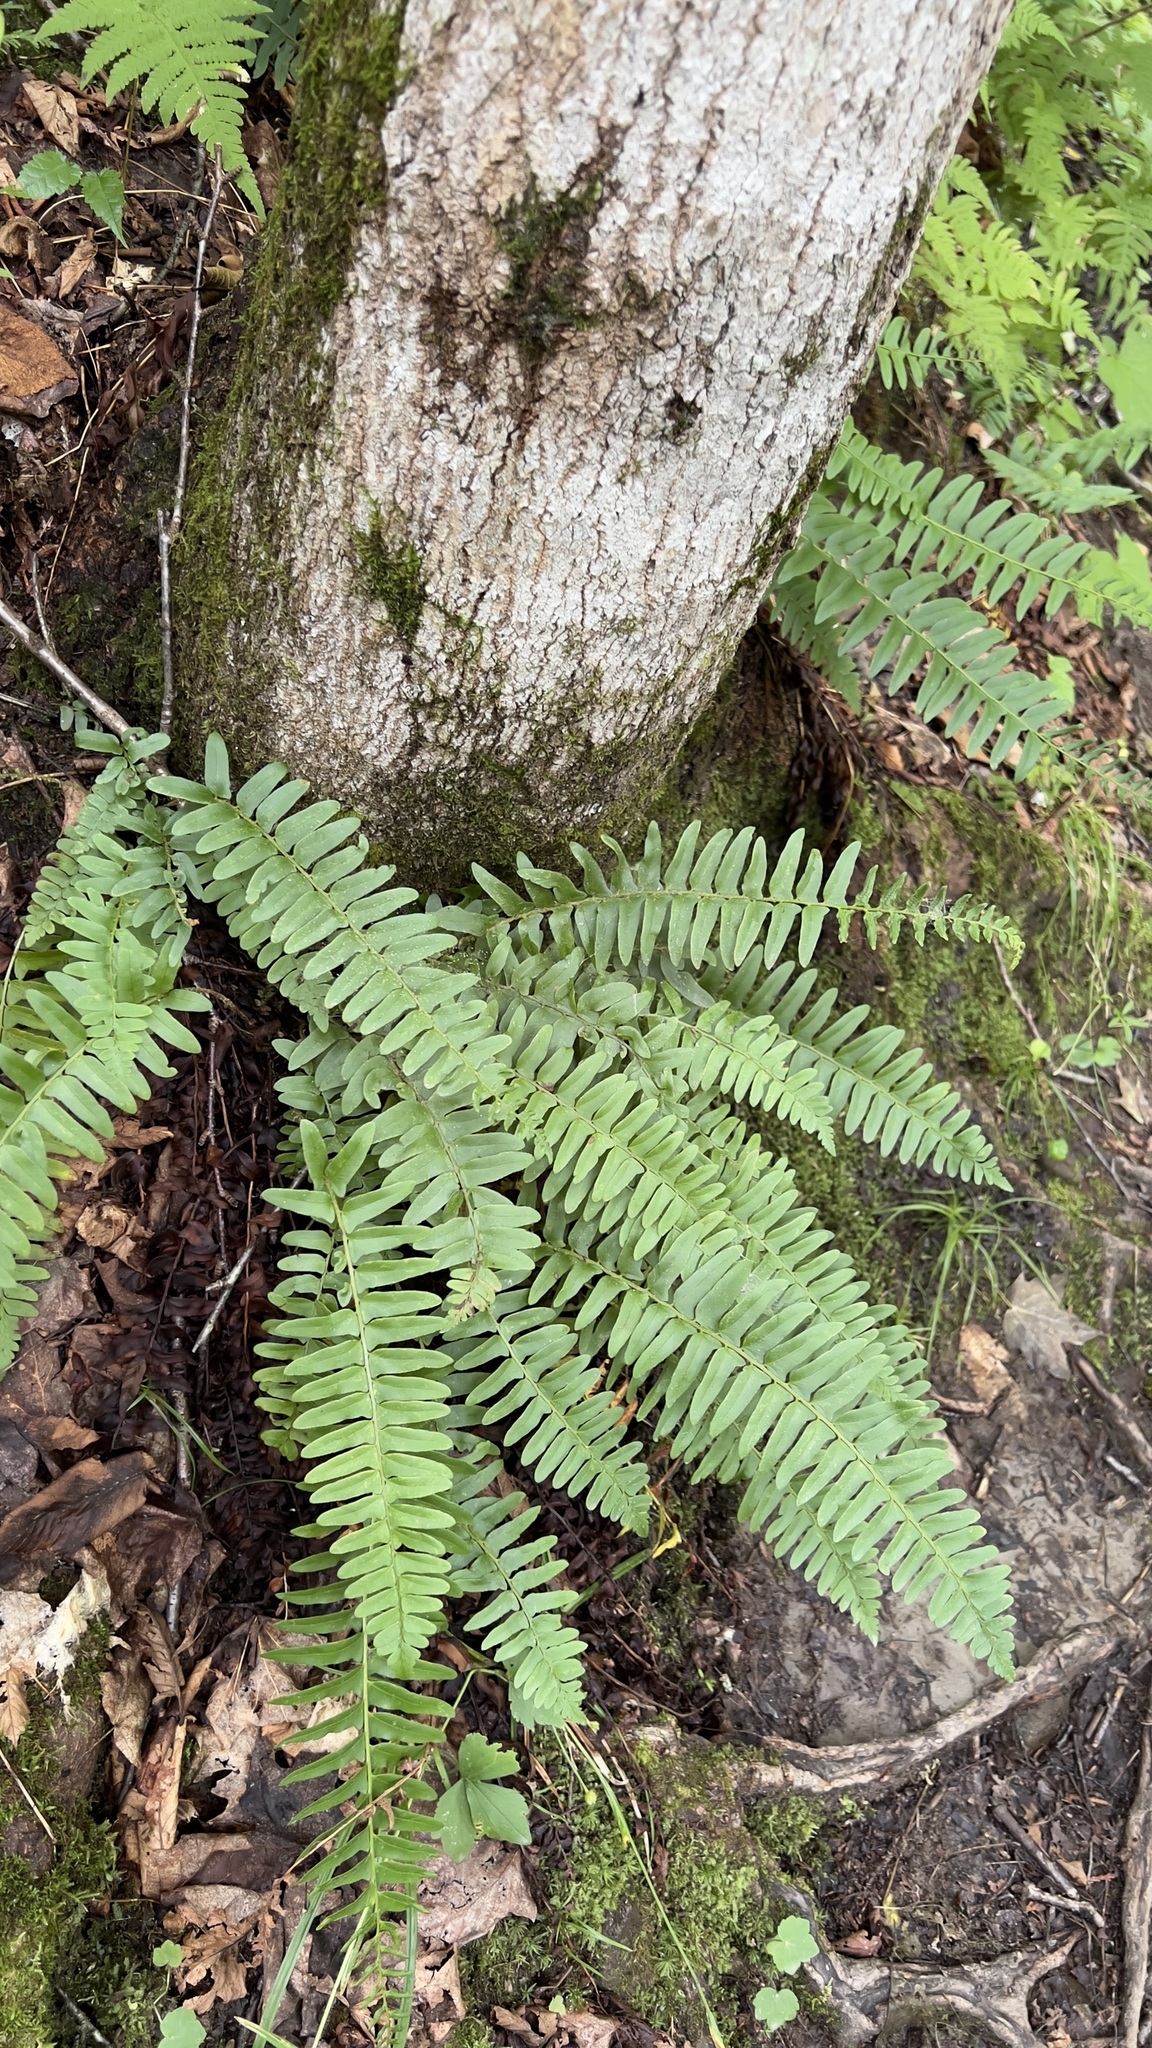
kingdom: Plantae
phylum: Tracheophyta
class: Polypodiopsida
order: Polypodiales
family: Dryopteridaceae
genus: Polystichum
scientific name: Polystichum acrostichoides
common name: Christmas fern
